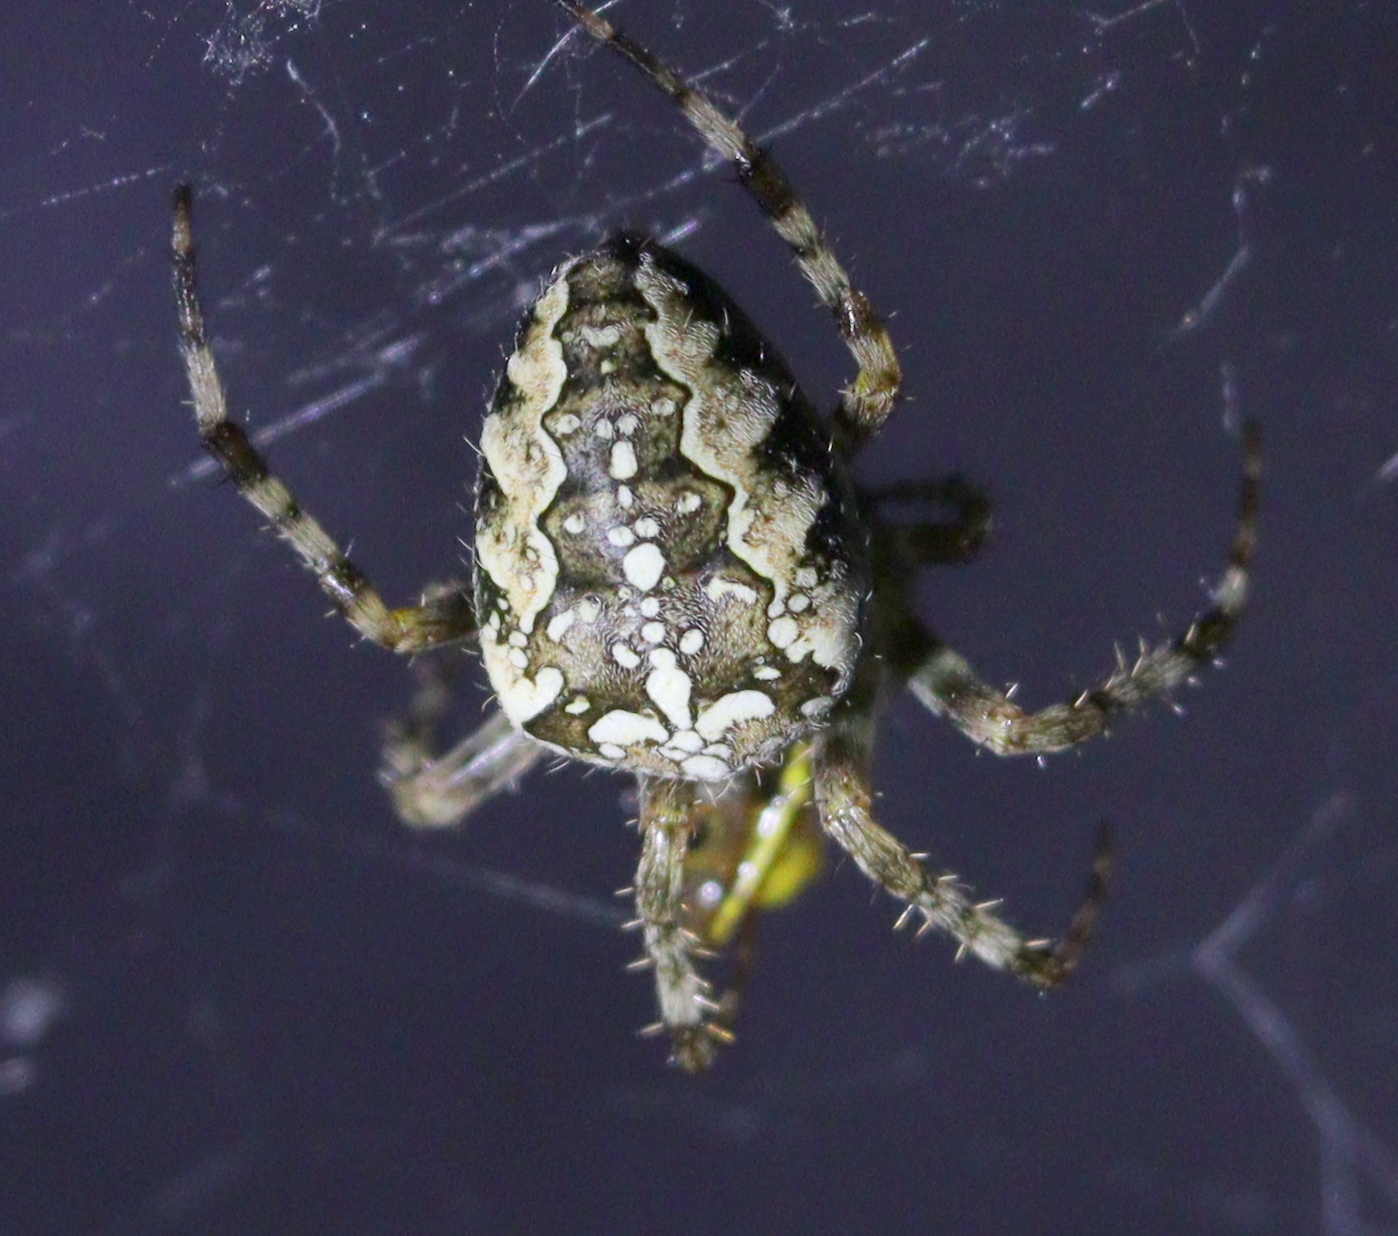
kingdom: Animalia
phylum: Arthropoda
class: Arachnida
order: Araneae
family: Araneidae
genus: Araneus
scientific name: Araneus diadematus
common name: Cross orbweaver
